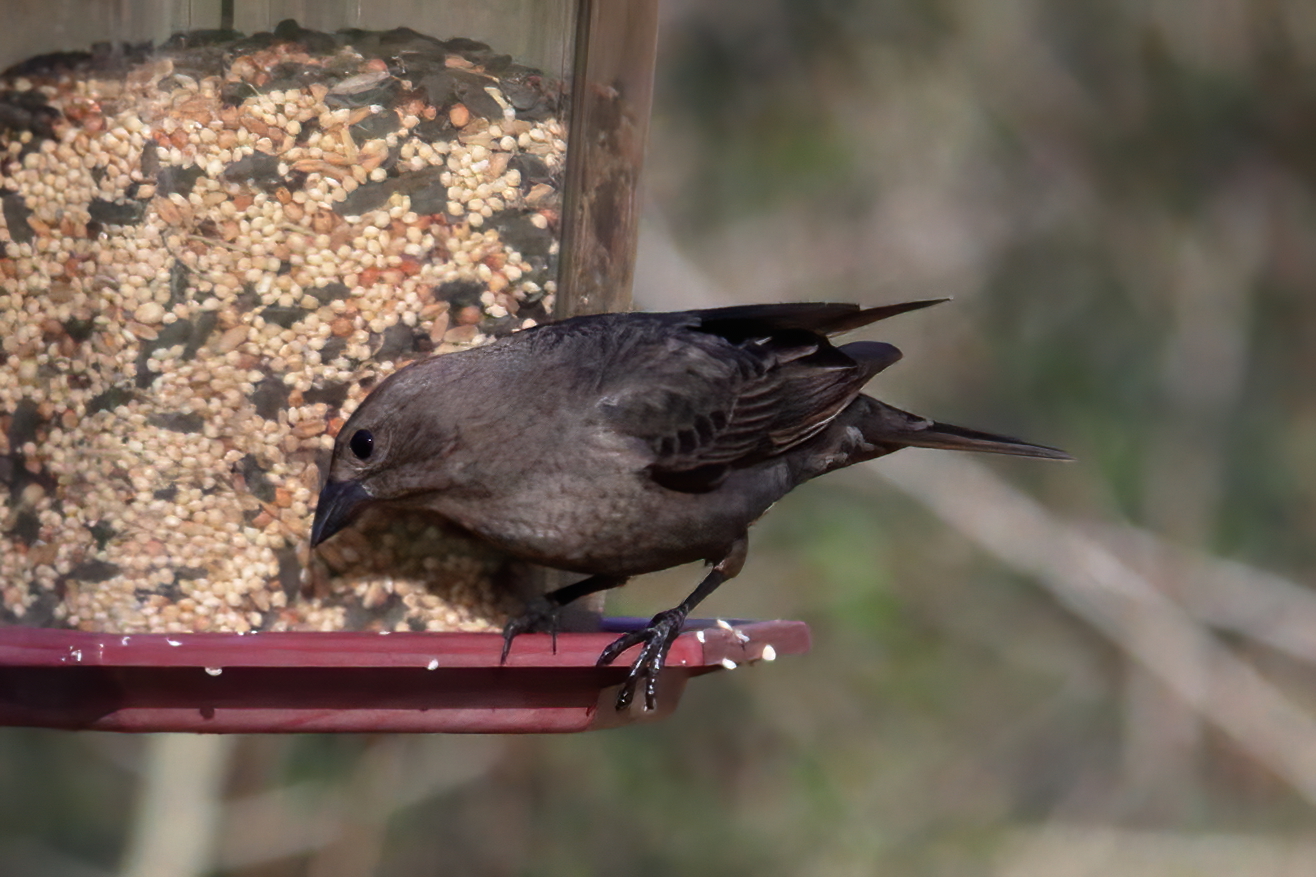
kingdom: Animalia
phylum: Chordata
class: Aves
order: Passeriformes
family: Icteridae
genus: Molothrus
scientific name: Molothrus ater
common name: Brown-headed cowbird
